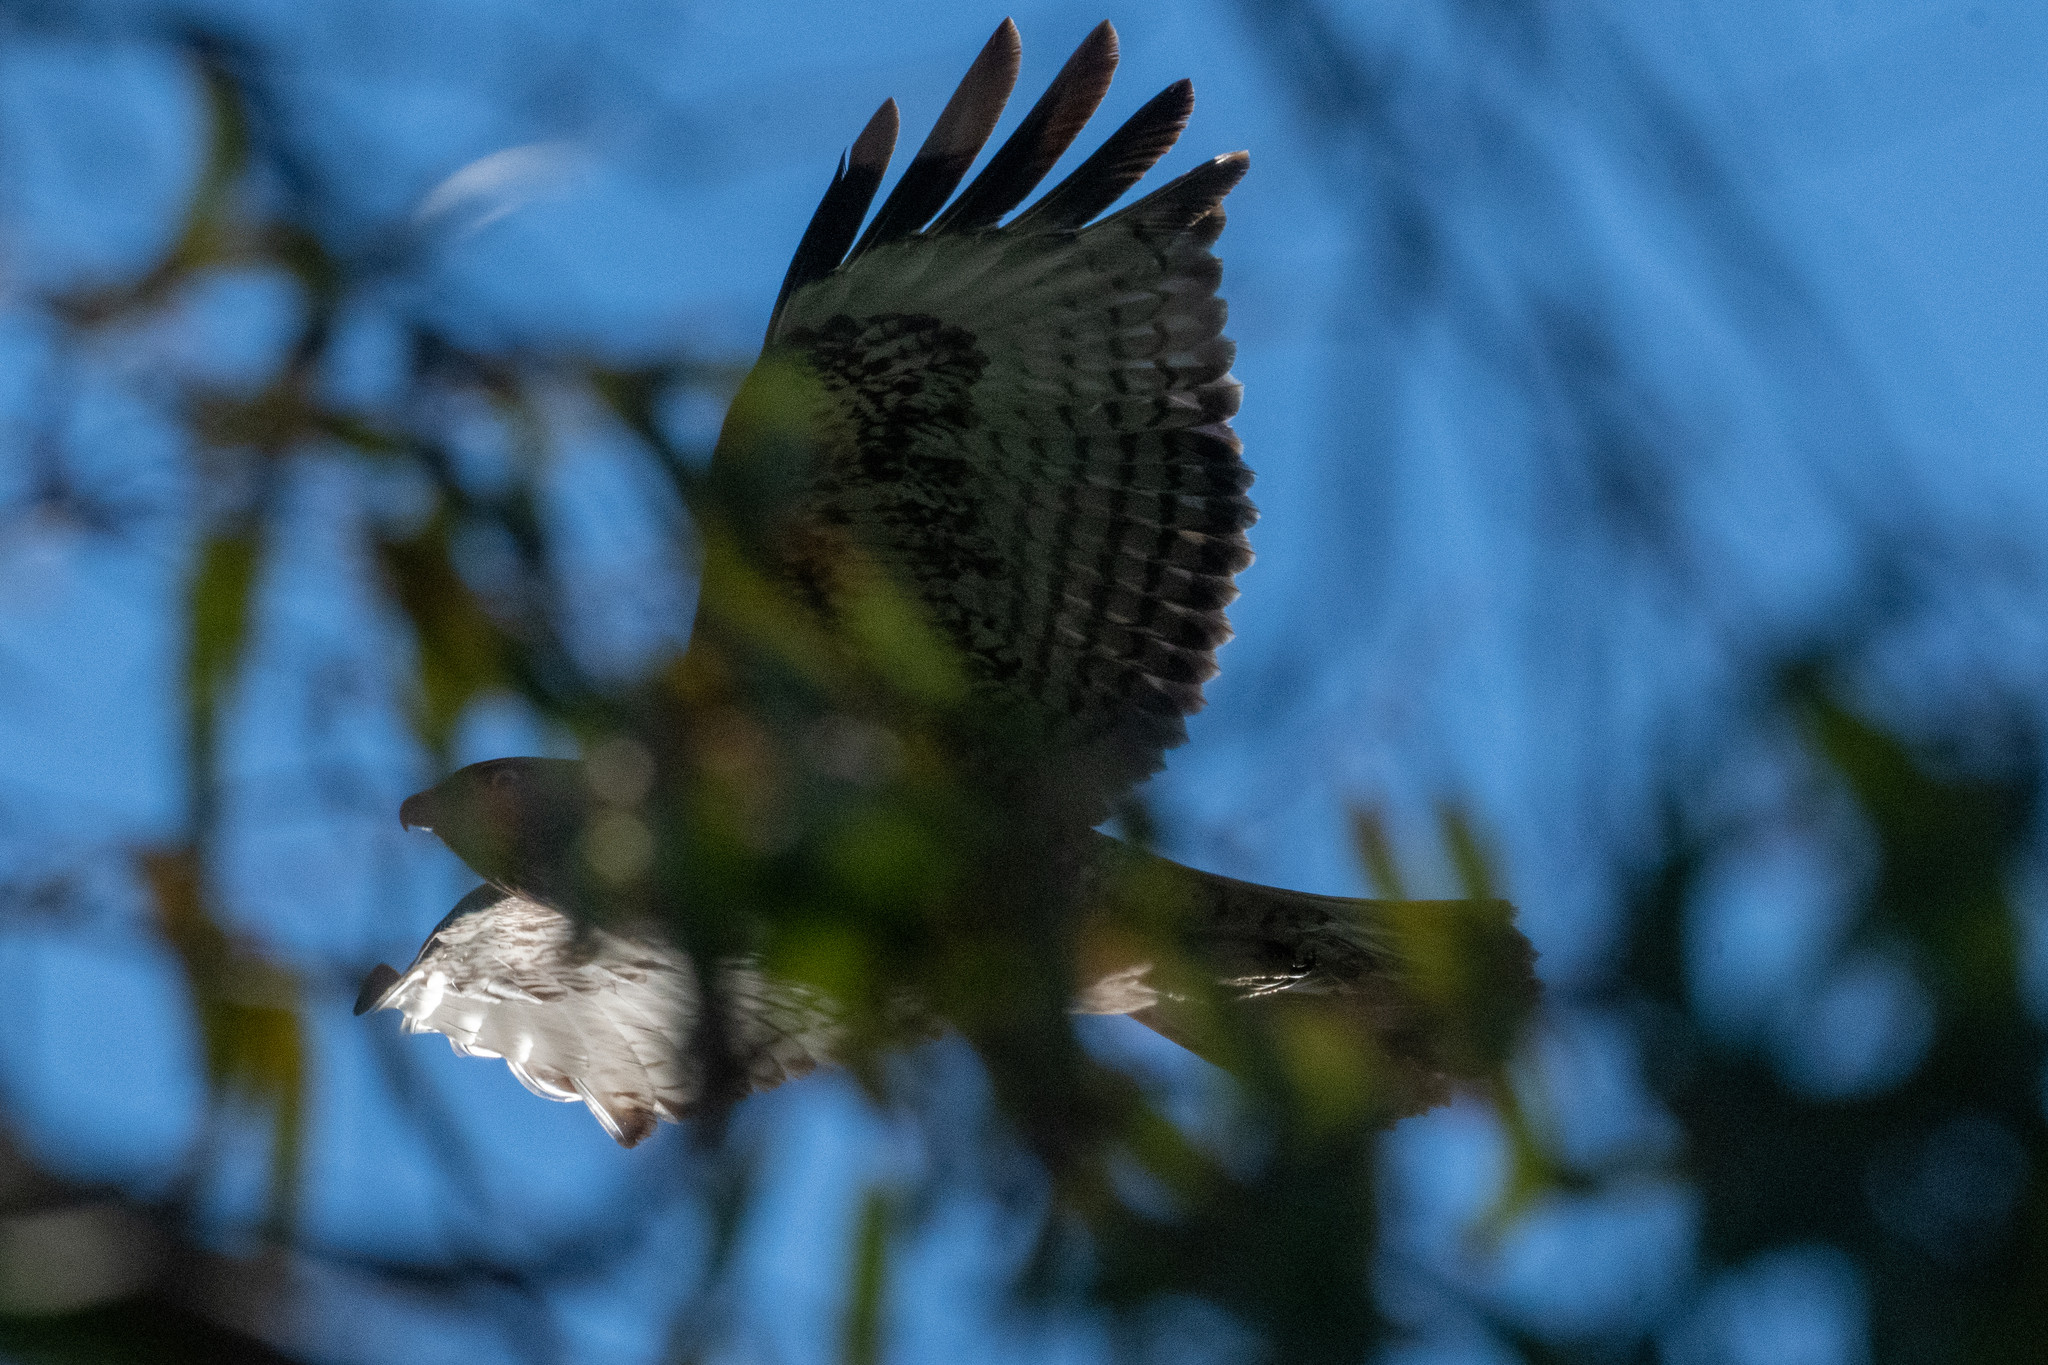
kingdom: Animalia
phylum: Chordata
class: Aves
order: Accipitriformes
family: Accipitridae
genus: Buteo
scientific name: Buteo jamaicensis
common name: Red-tailed hawk
